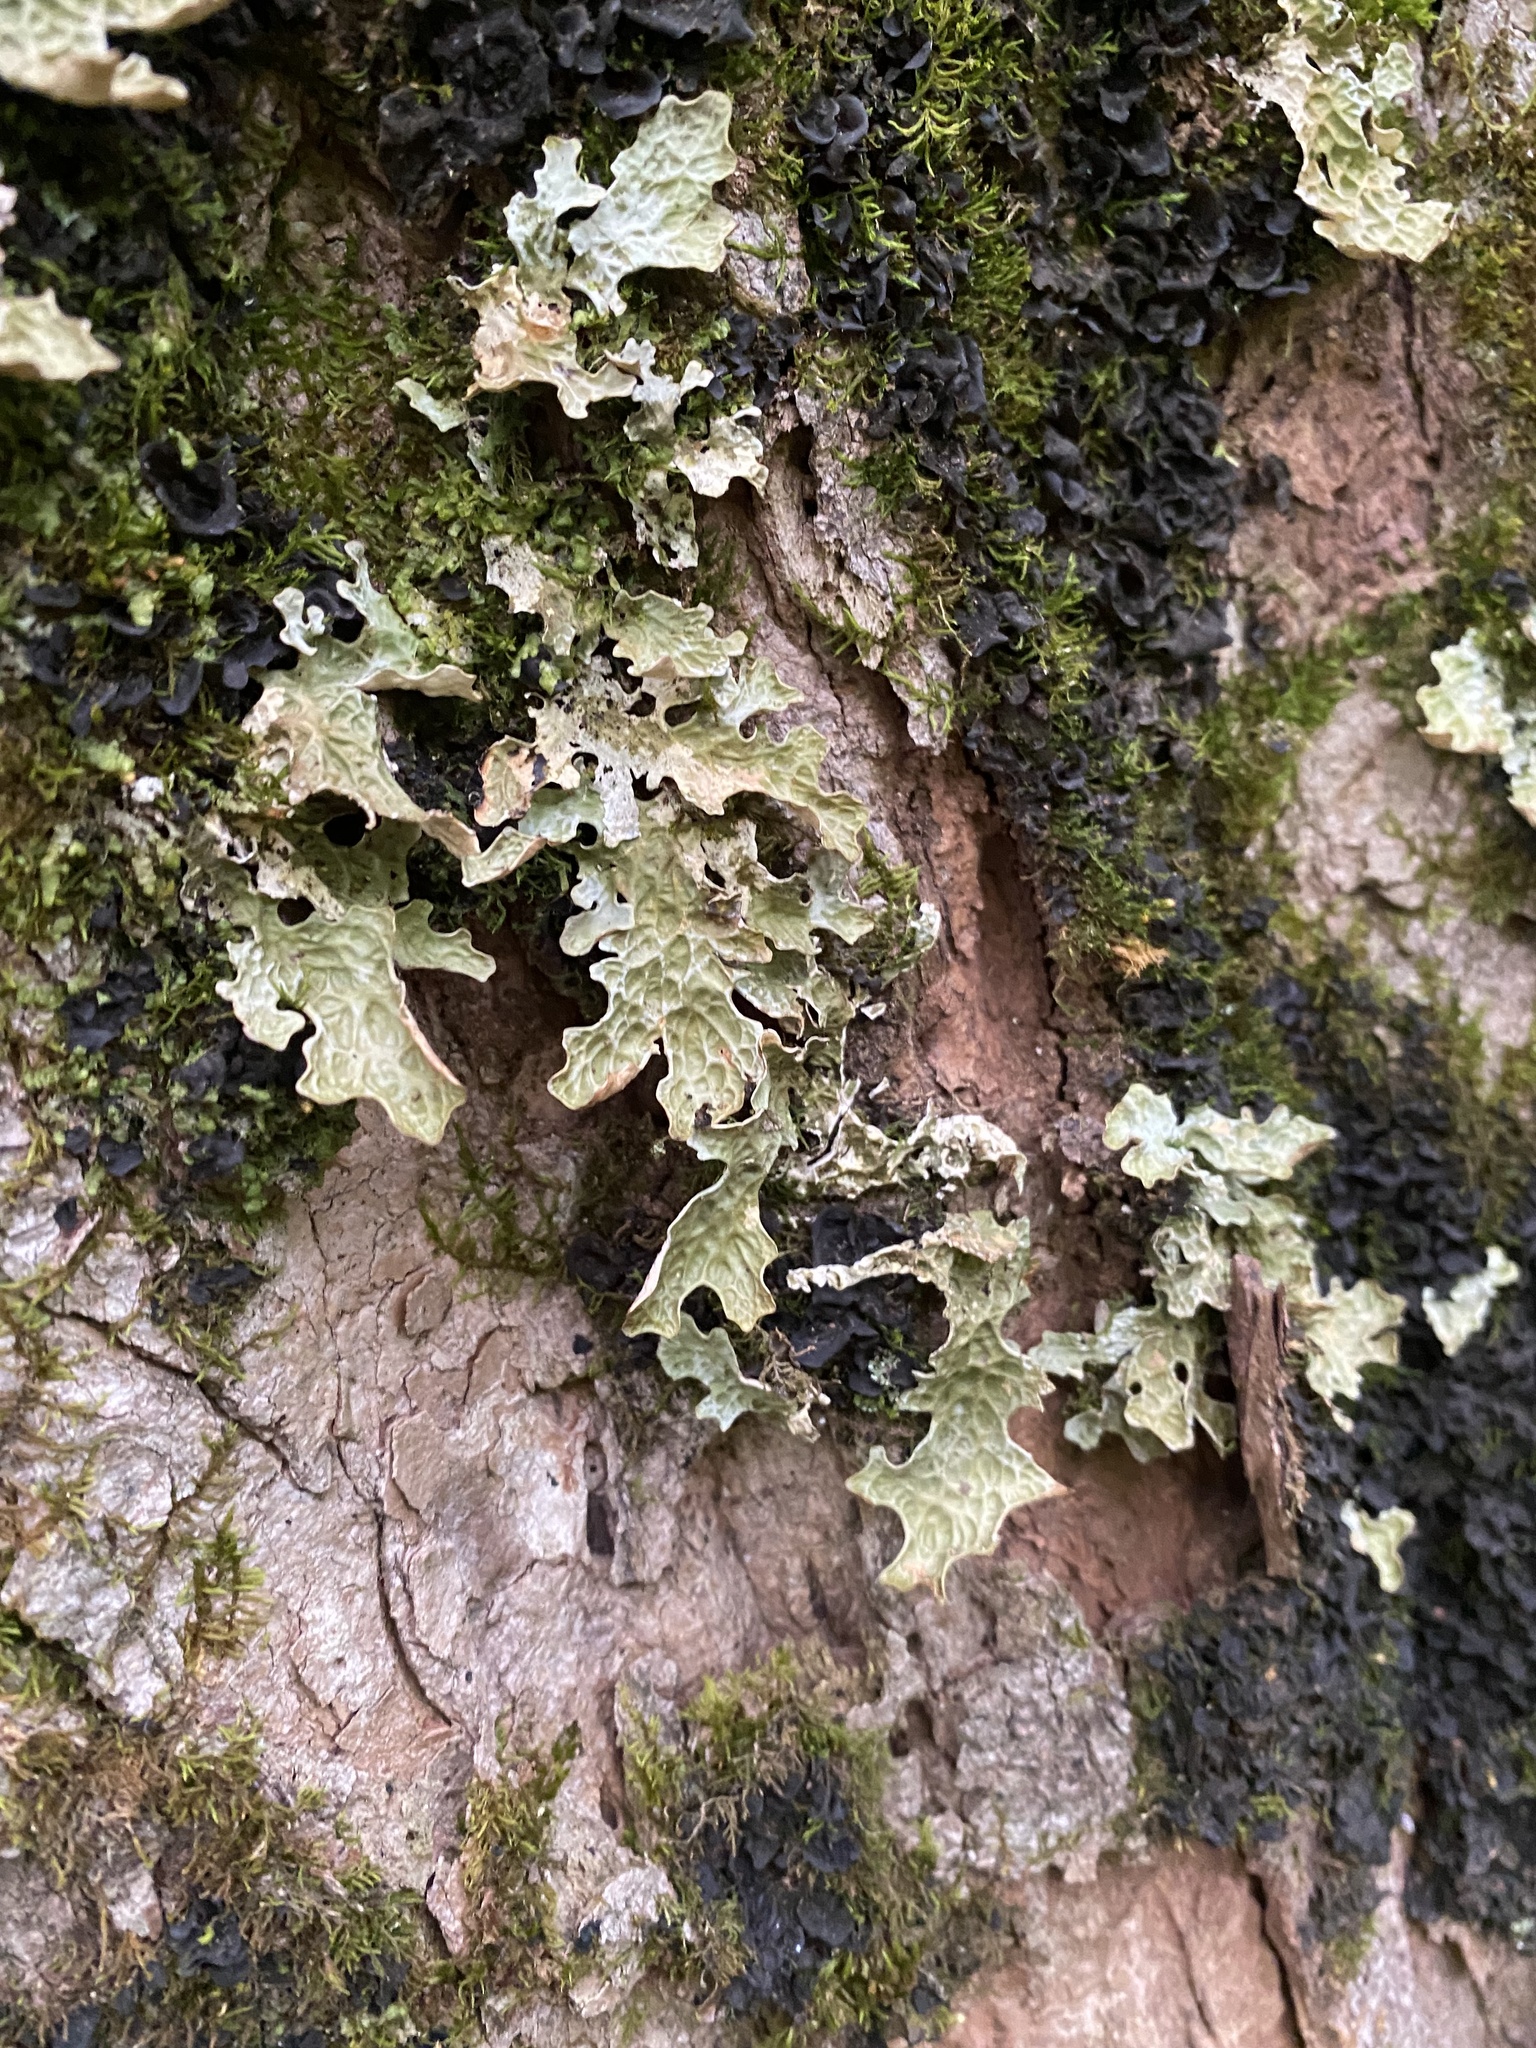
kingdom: Fungi
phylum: Ascomycota
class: Lecanoromycetes
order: Peltigerales
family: Lobariaceae
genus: Lobaria
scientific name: Lobaria pulmonaria
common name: Lungwort
